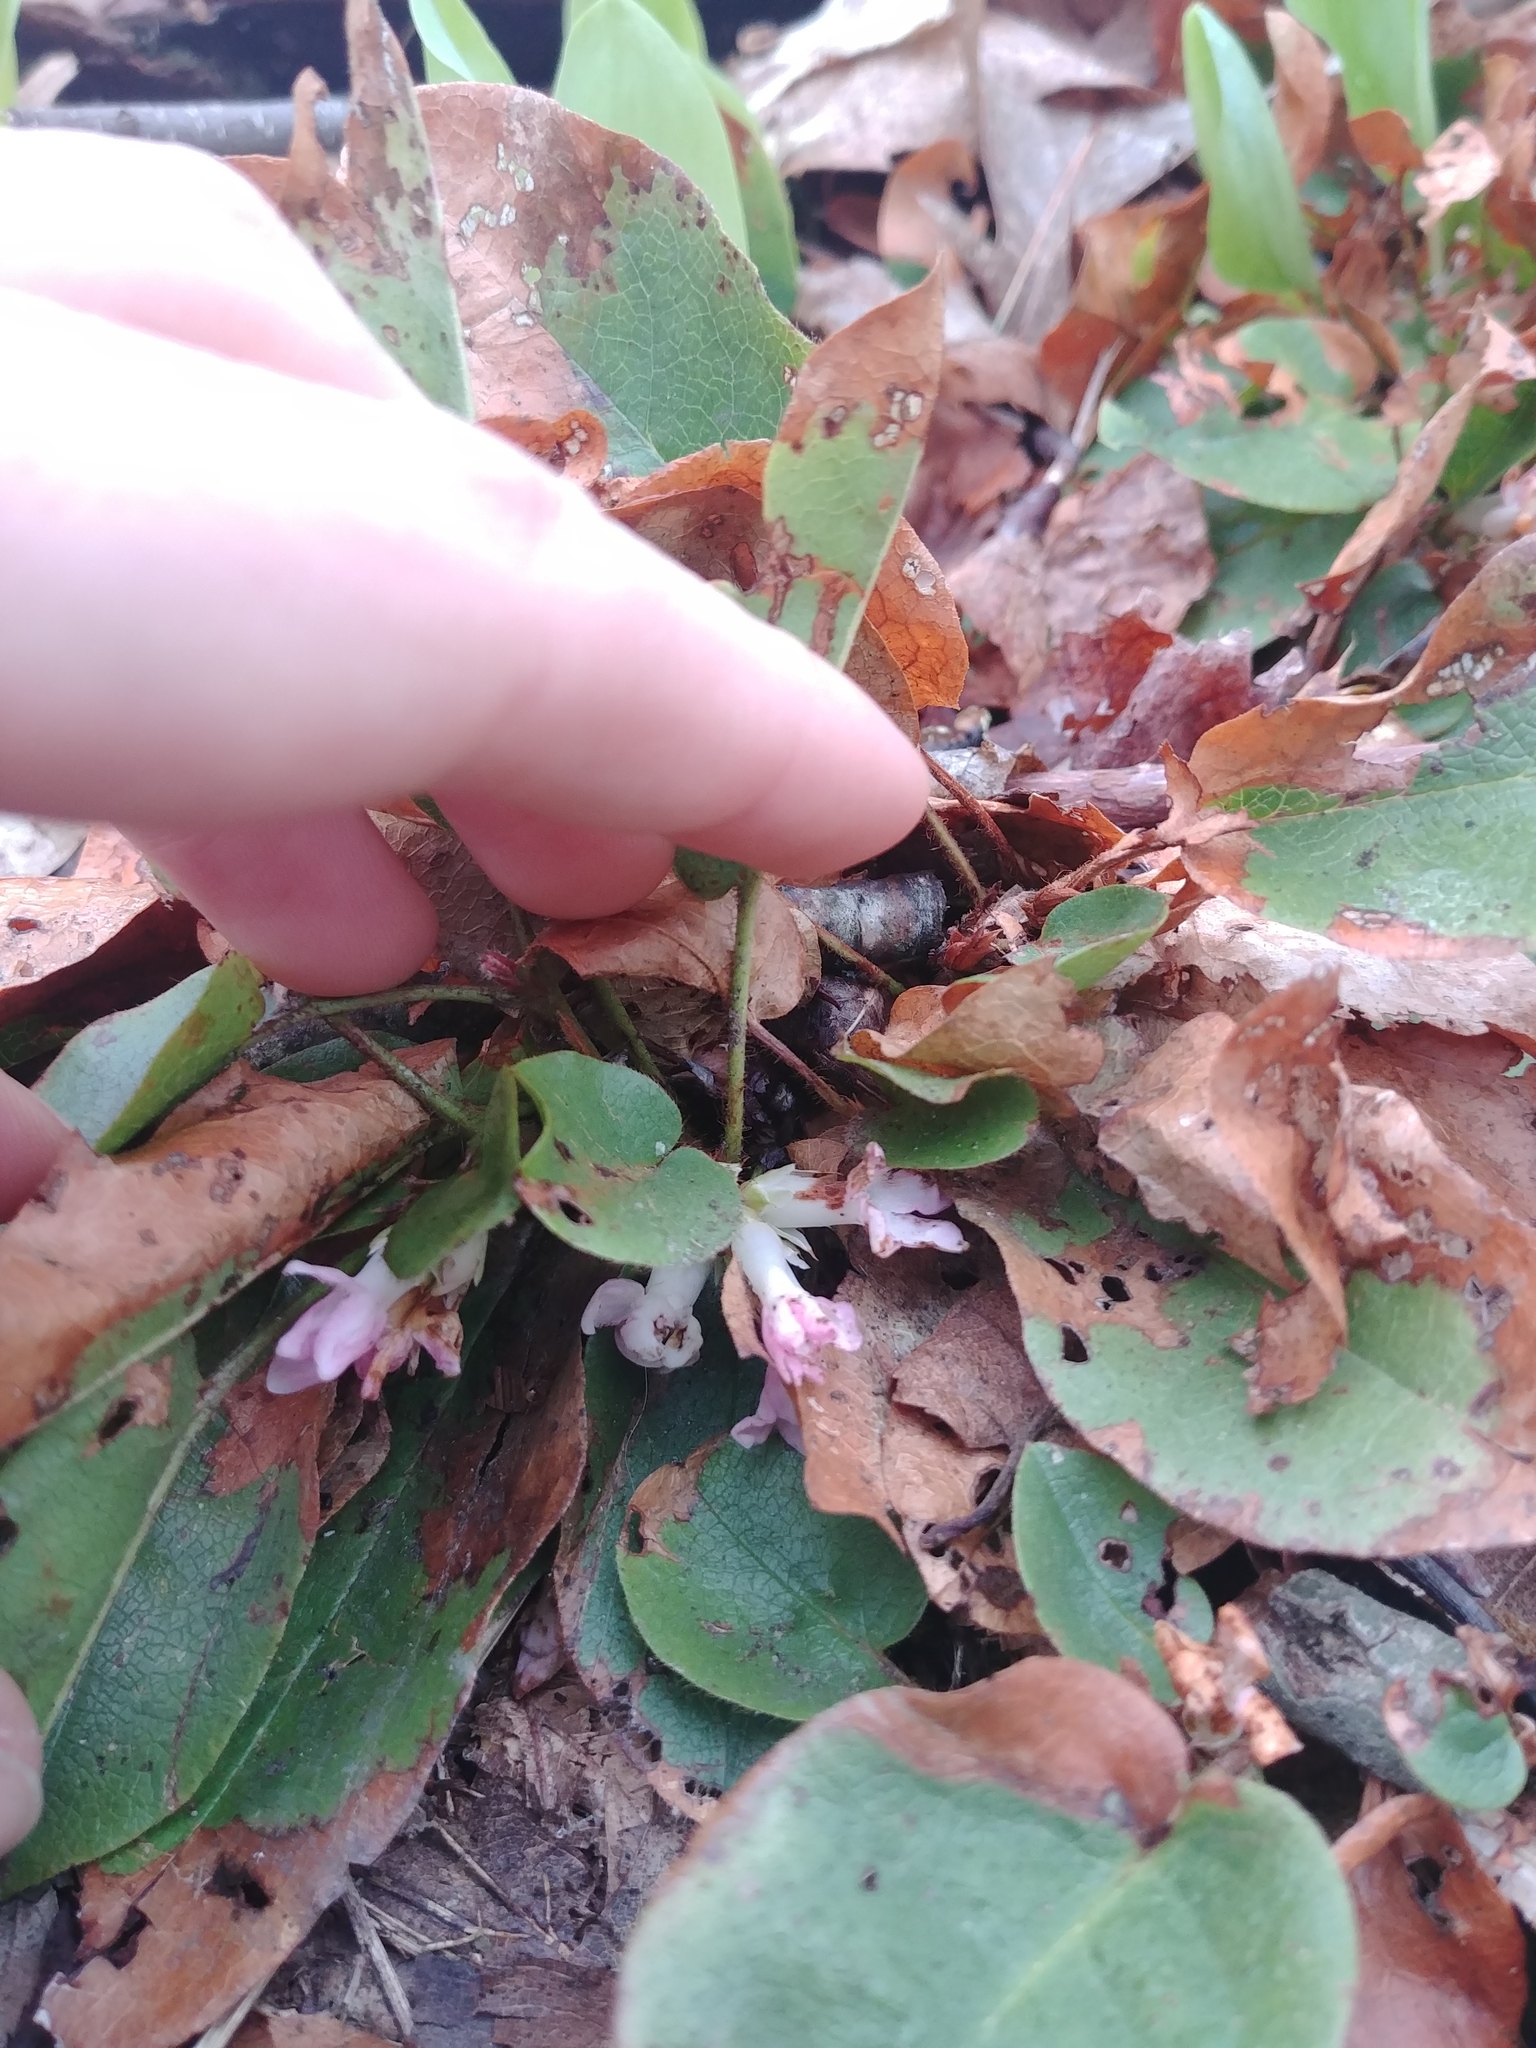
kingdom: Plantae
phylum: Tracheophyta
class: Magnoliopsida
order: Ericales
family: Ericaceae
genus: Epigaea
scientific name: Epigaea repens
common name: Gravelroot
